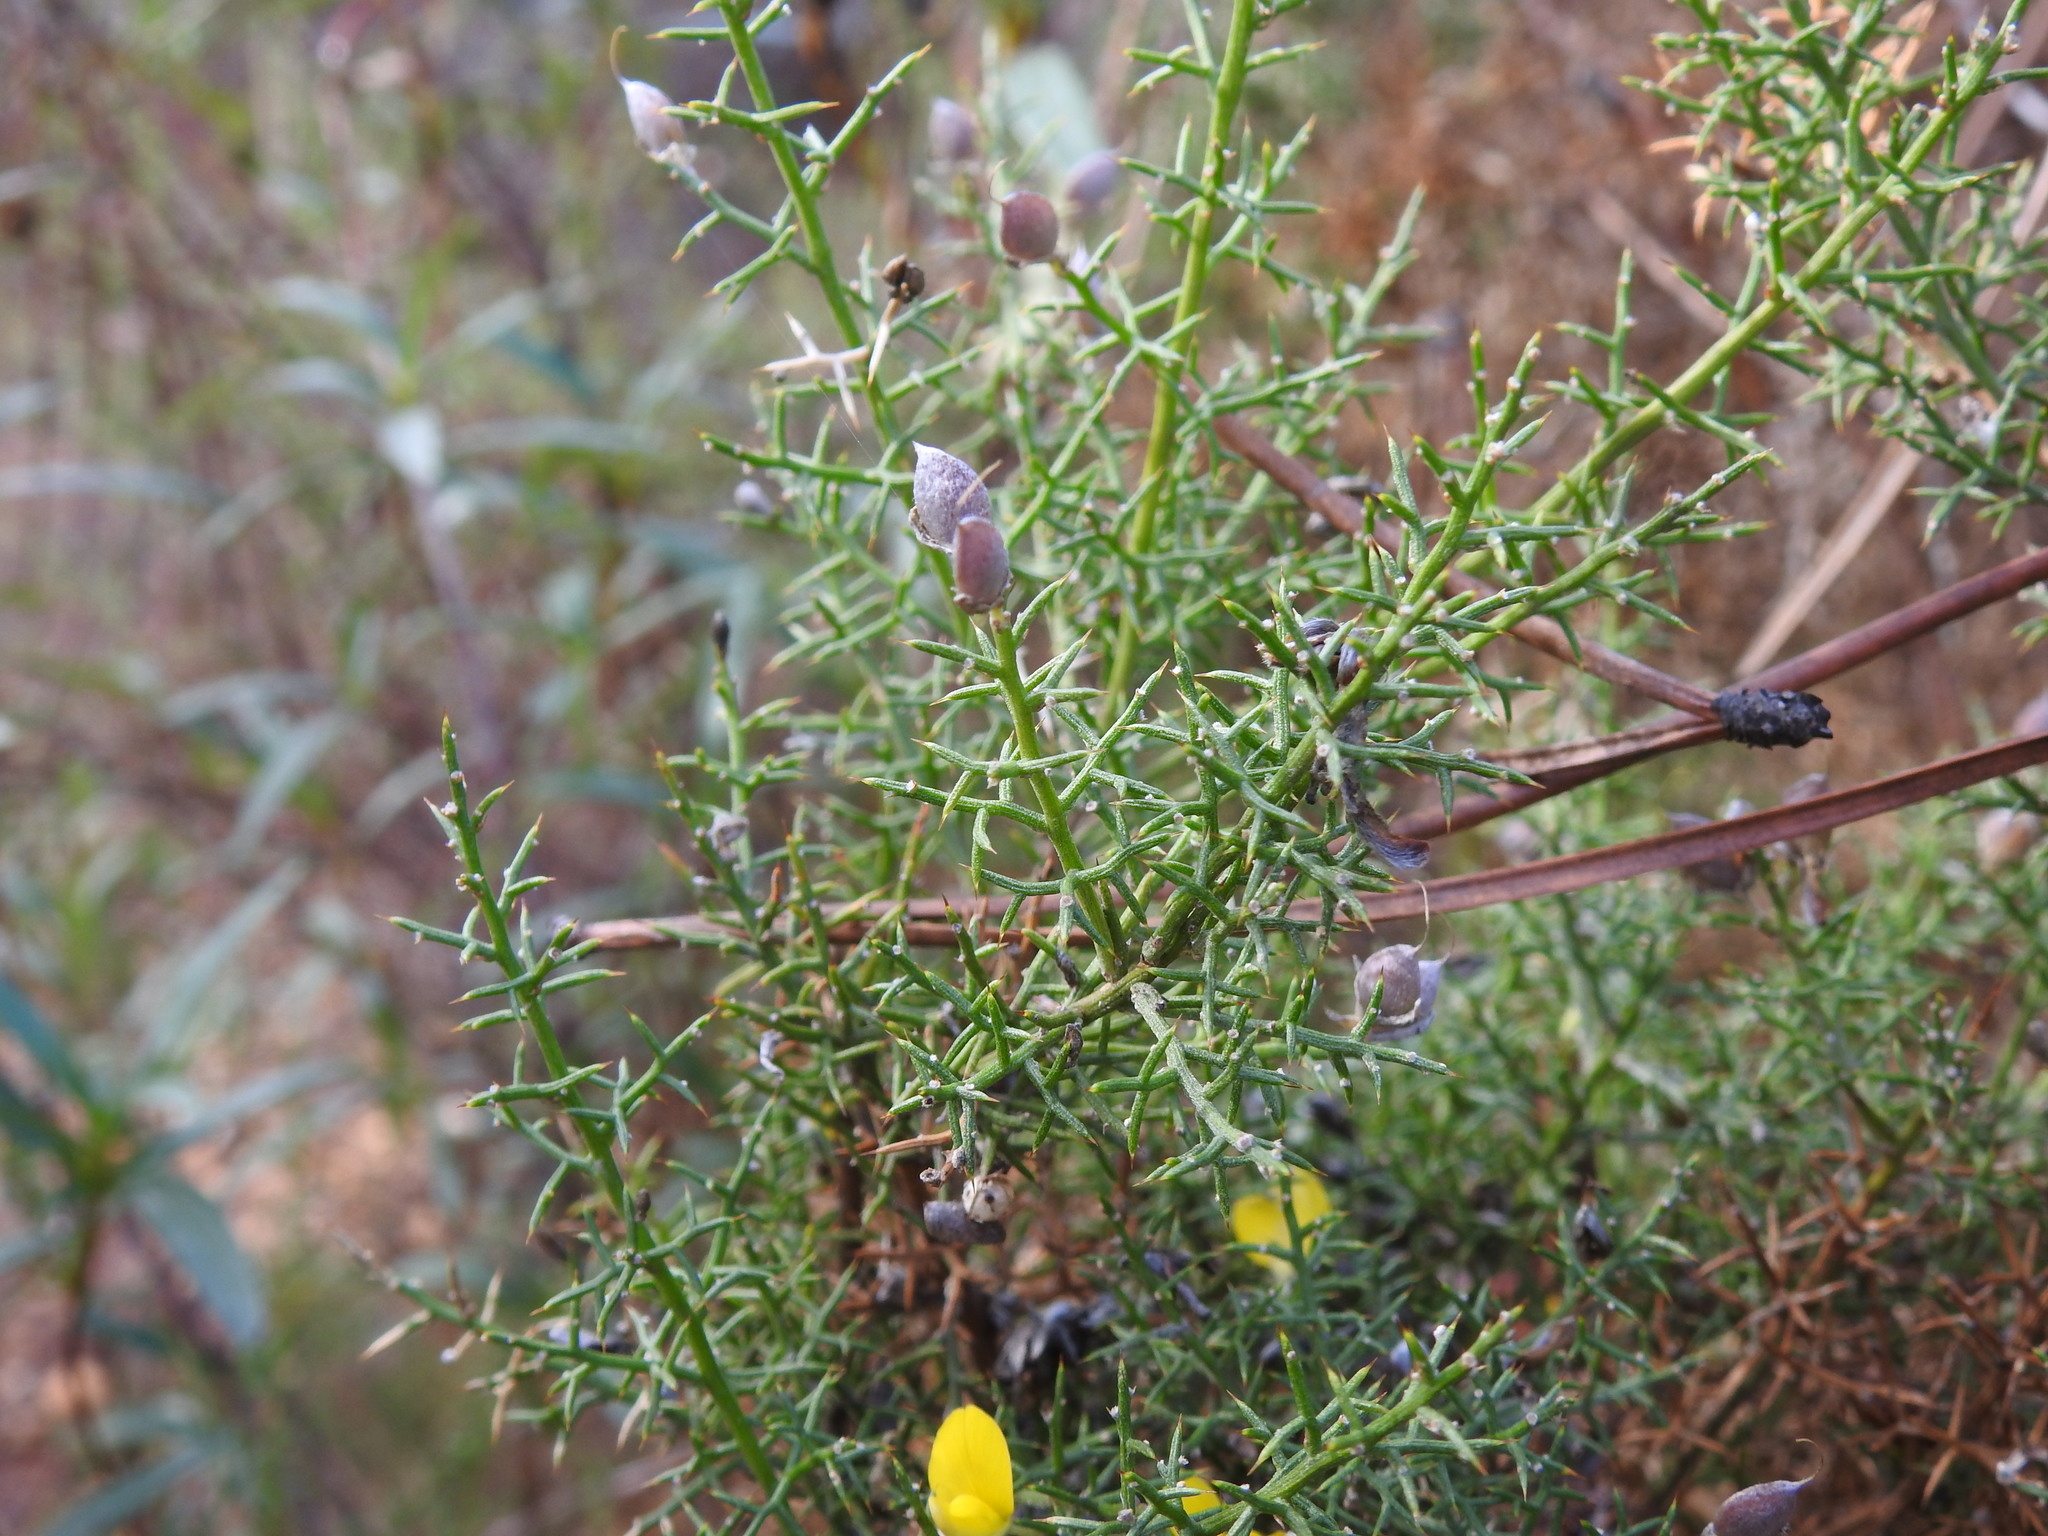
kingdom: Plantae
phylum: Tracheophyta
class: Magnoliopsida
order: Fabales
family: Fabaceae
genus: Stauracanthus
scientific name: Stauracanthus boivinii
